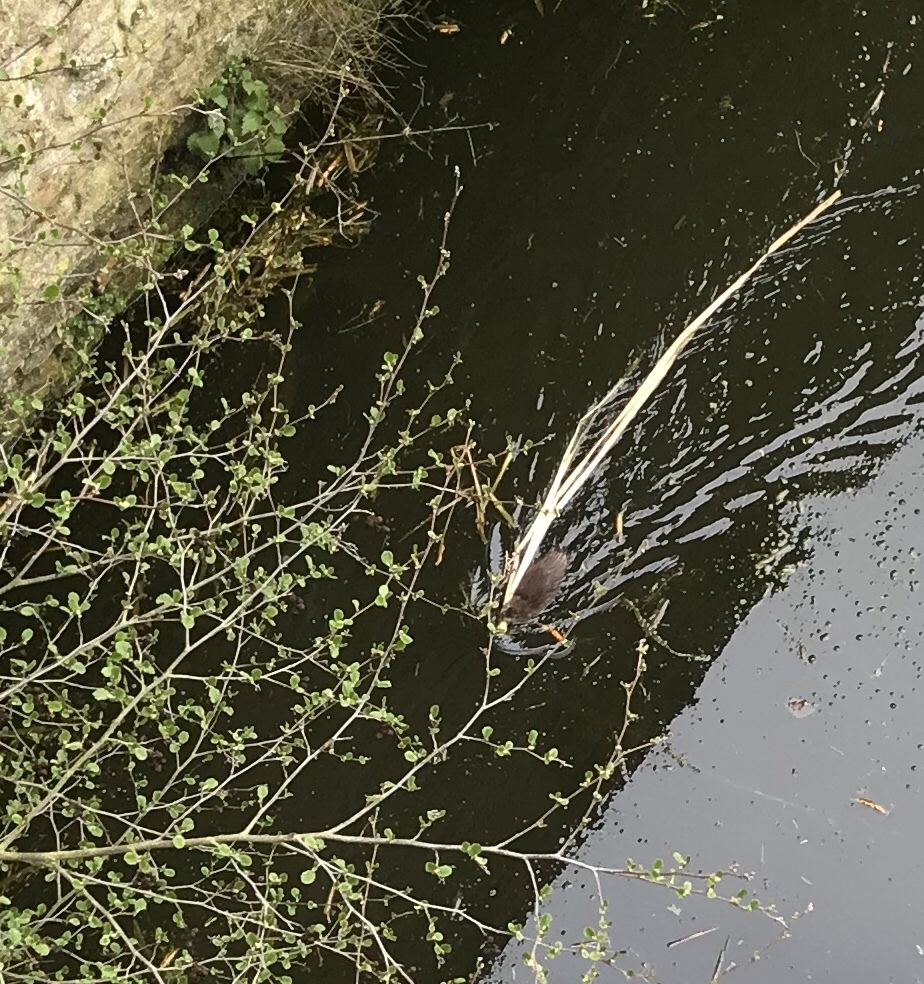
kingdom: Animalia
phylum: Chordata
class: Mammalia
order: Rodentia
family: Cricetidae
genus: Ondatra
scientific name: Ondatra zibethicus
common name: Muskrat
